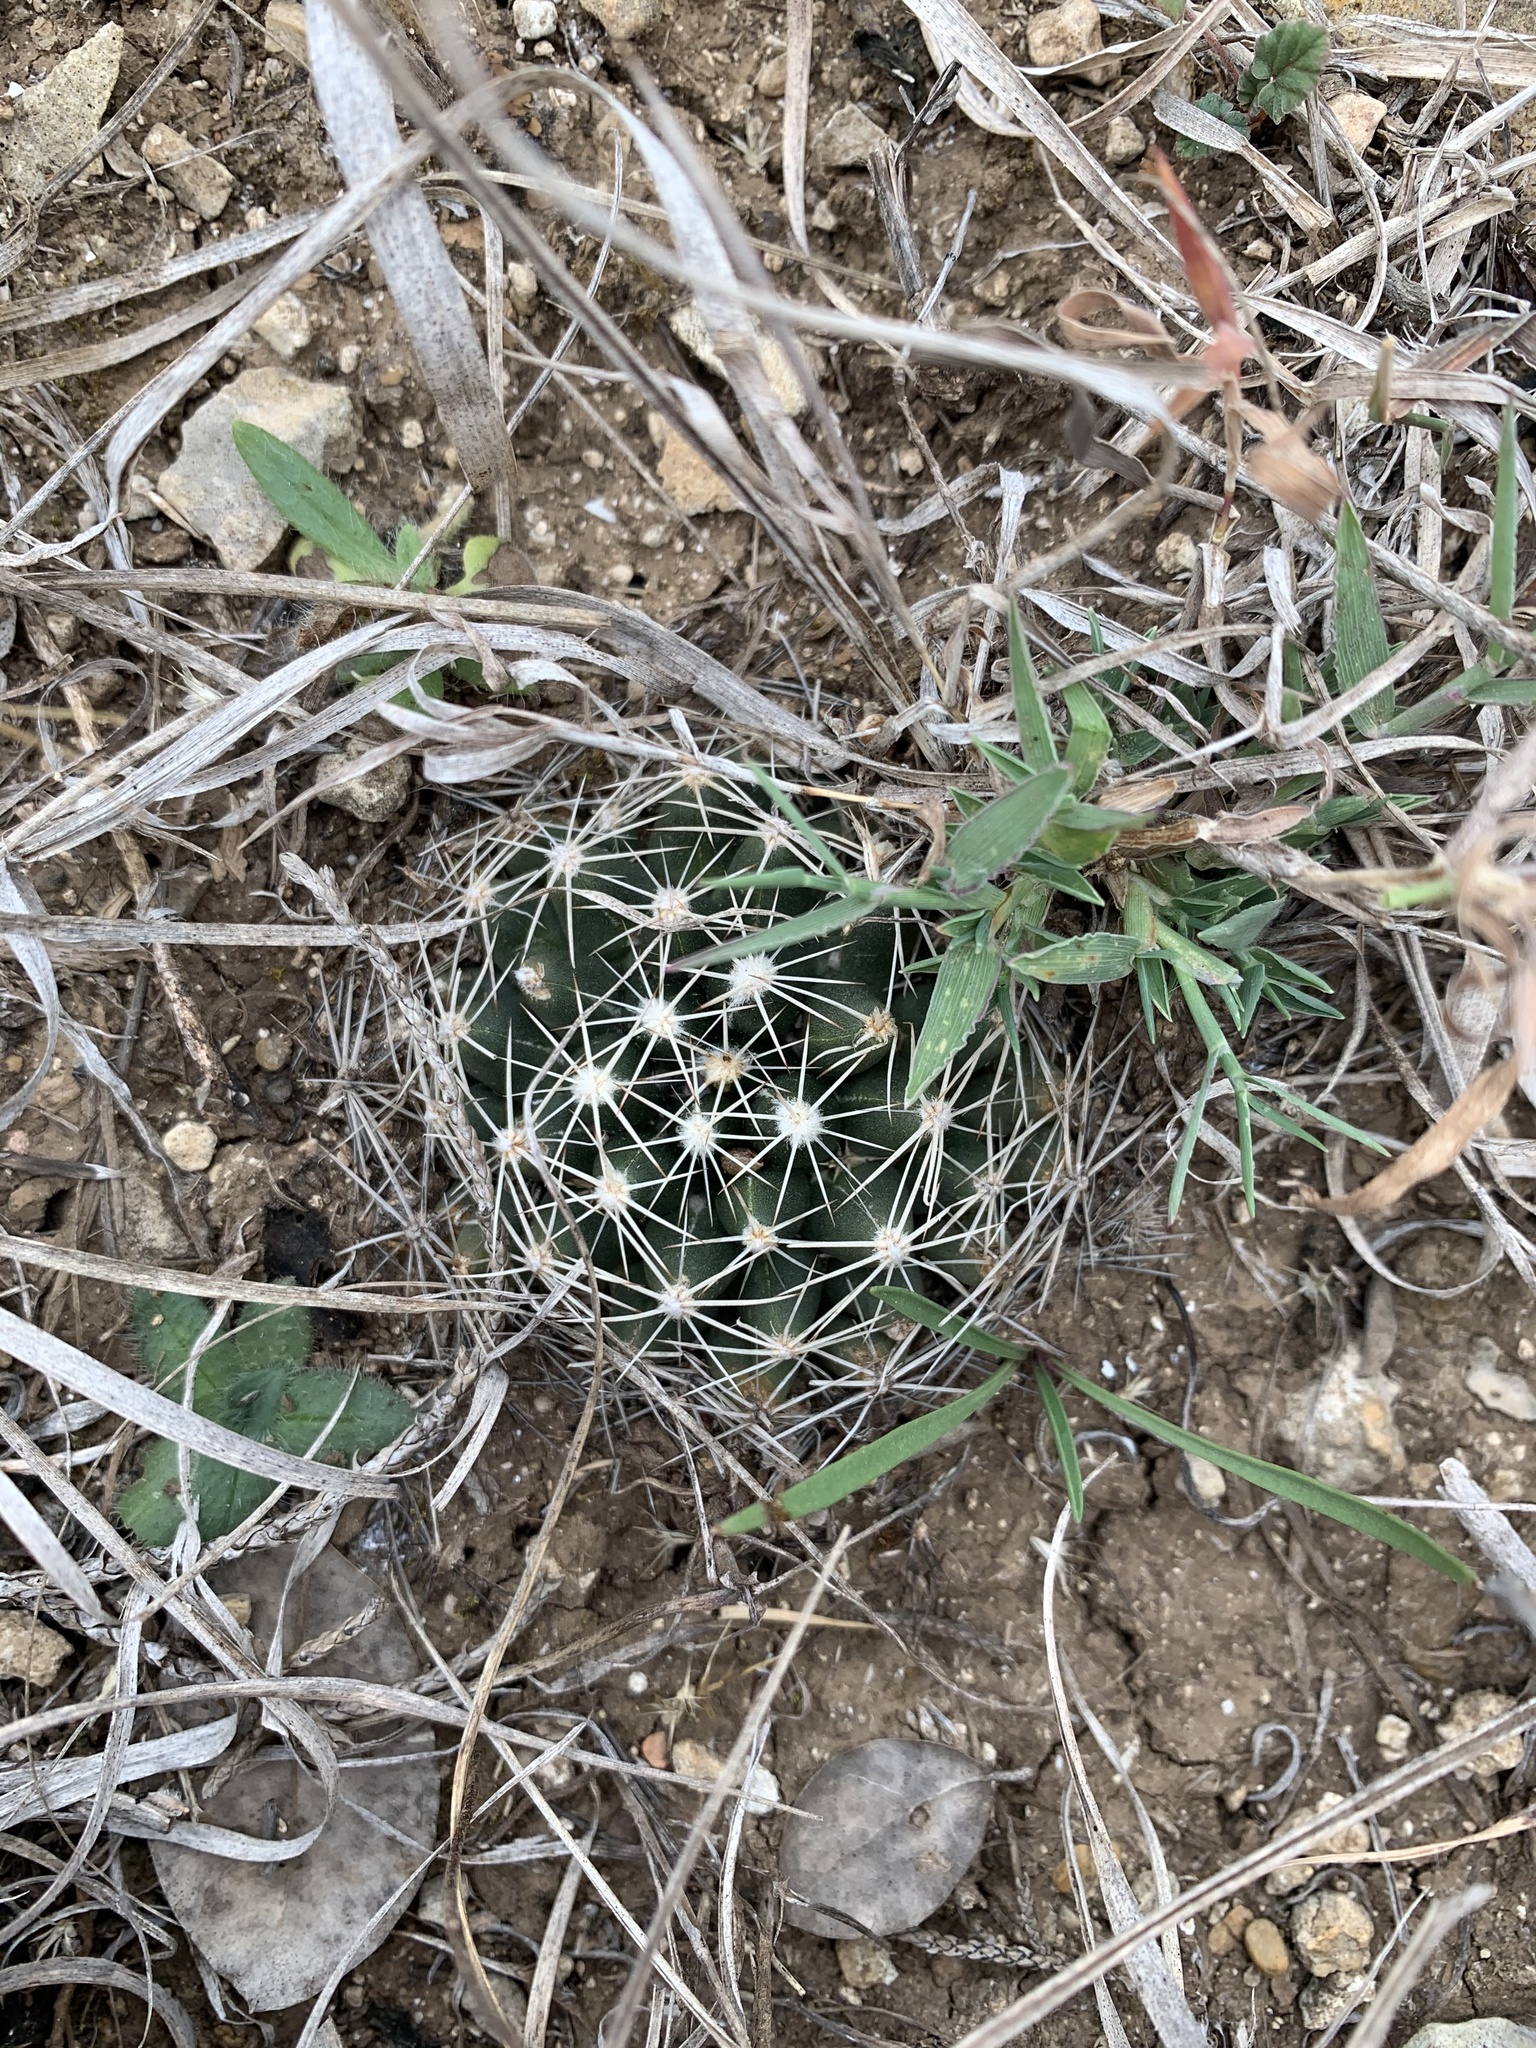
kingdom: Plantae
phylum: Tracheophyta
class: Magnoliopsida
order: Caryophyllales
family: Cactaceae
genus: Pelecyphora
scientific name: Pelecyphora missouriensis
